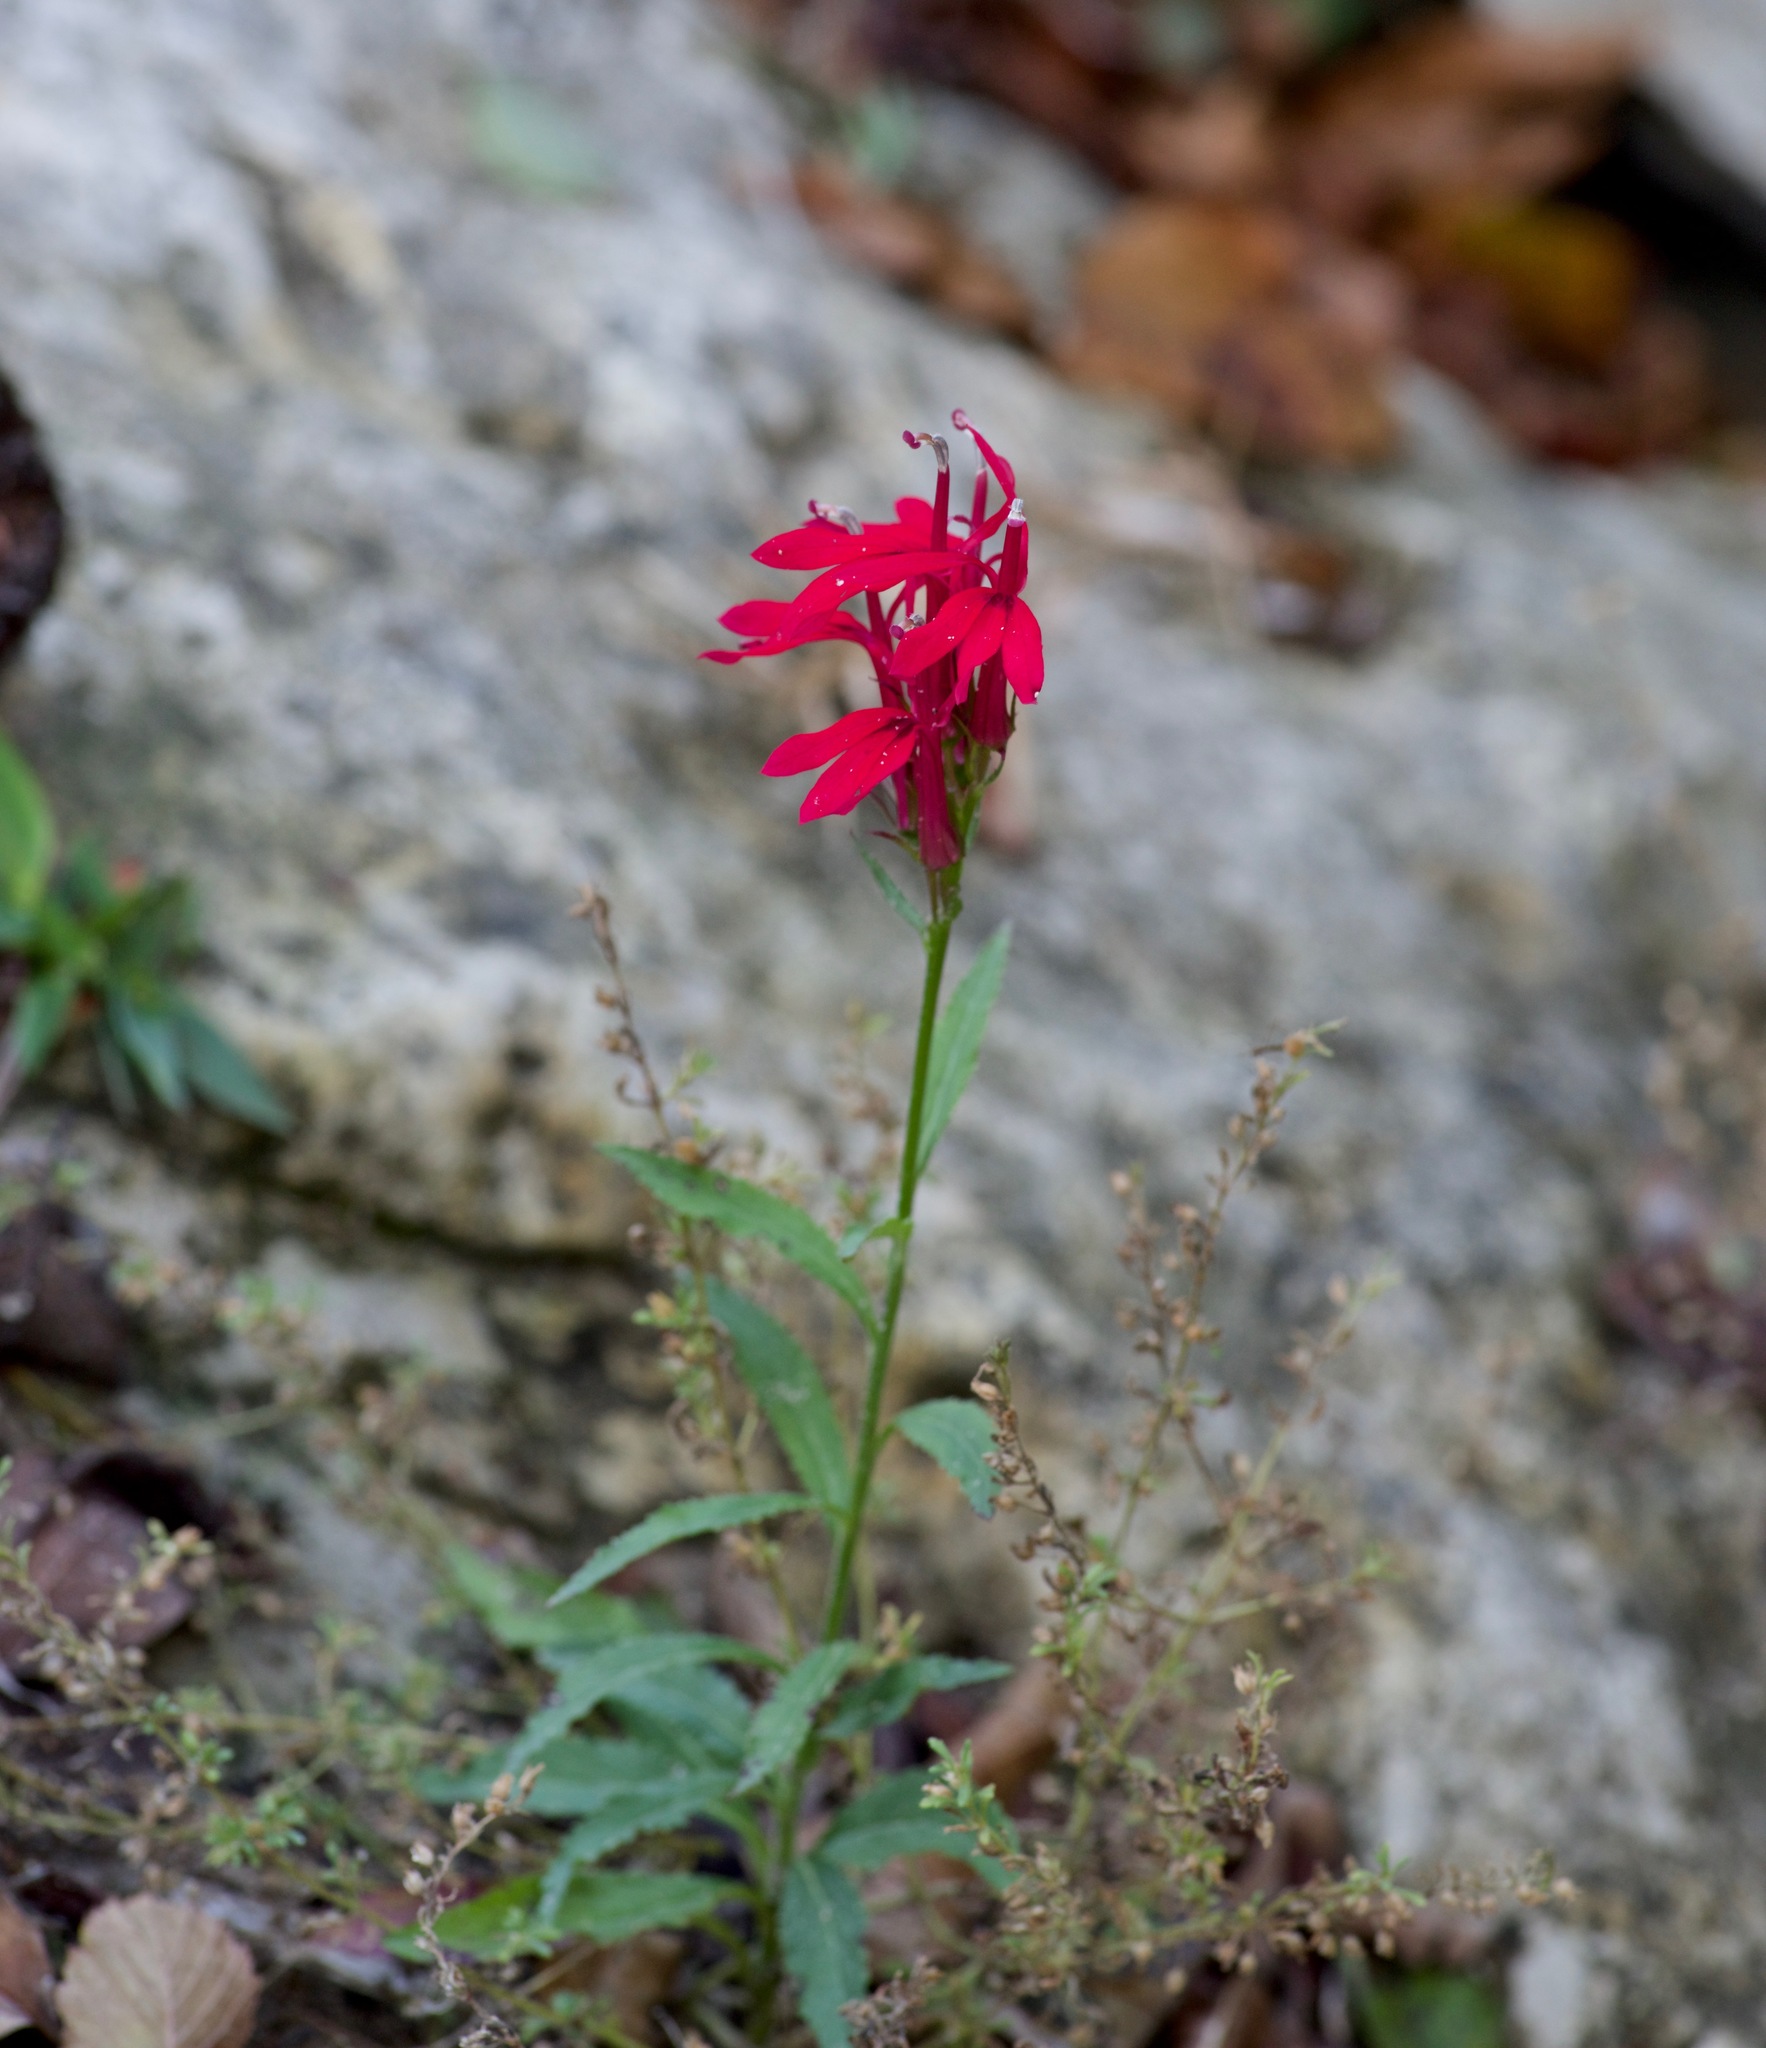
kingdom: Plantae
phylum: Tracheophyta
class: Magnoliopsida
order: Asterales
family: Campanulaceae
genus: Lobelia
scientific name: Lobelia cardinalis
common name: Cardinal flower
